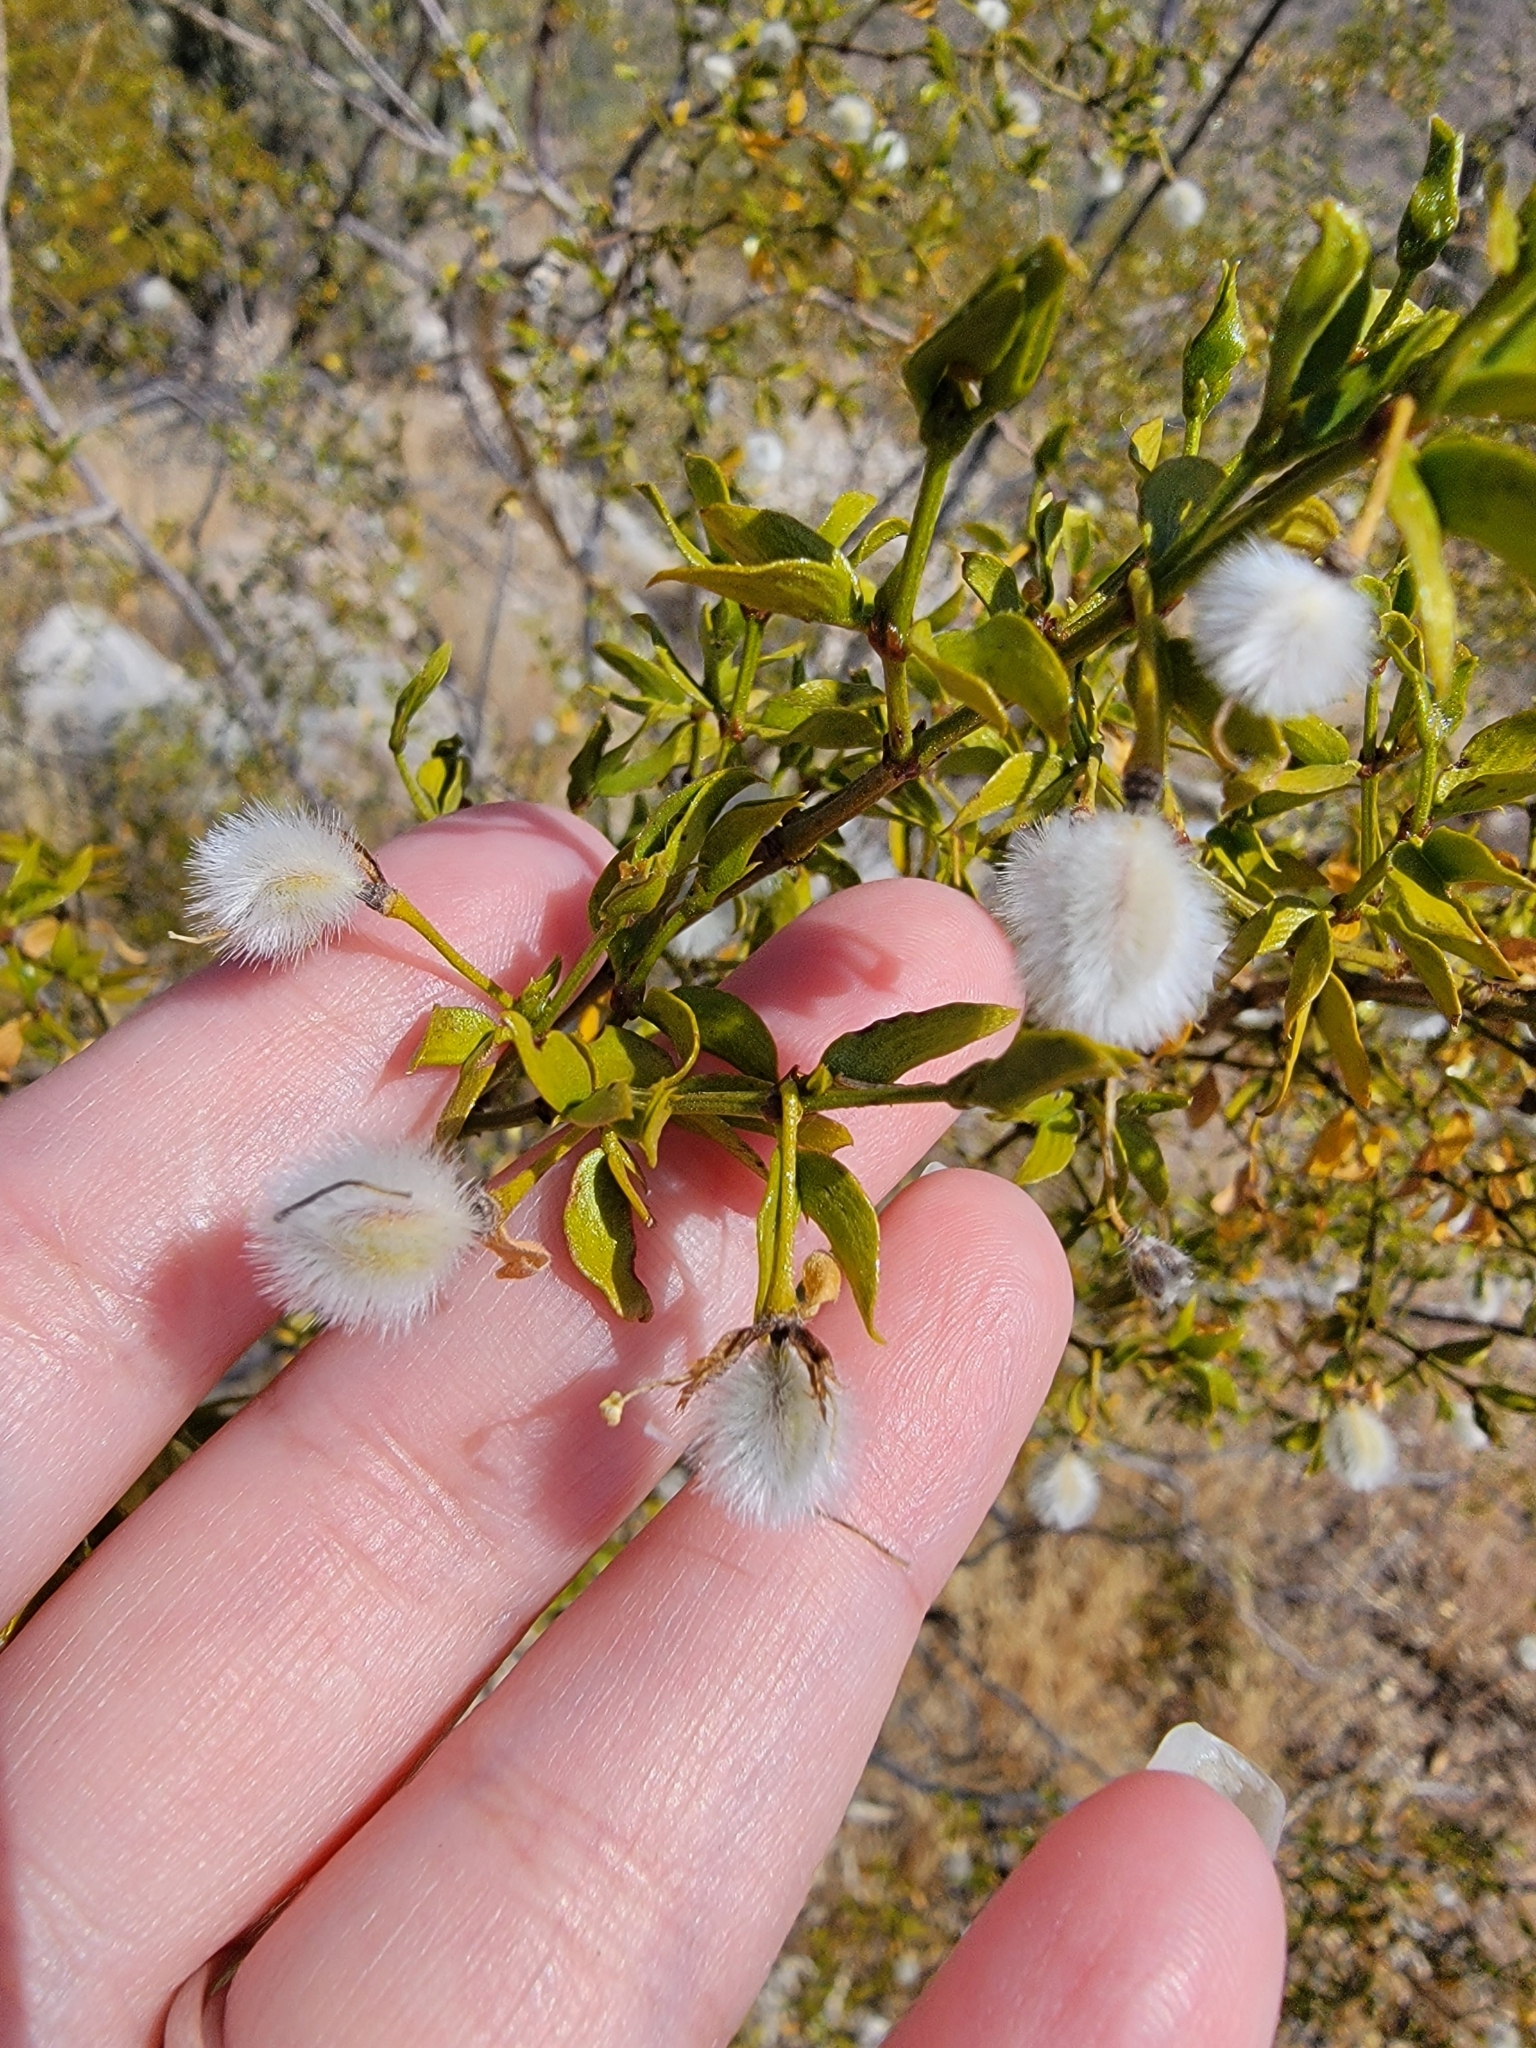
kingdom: Plantae
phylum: Tracheophyta
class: Magnoliopsida
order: Zygophyllales
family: Zygophyllaceae
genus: Larrea
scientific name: Larrea tridentata
